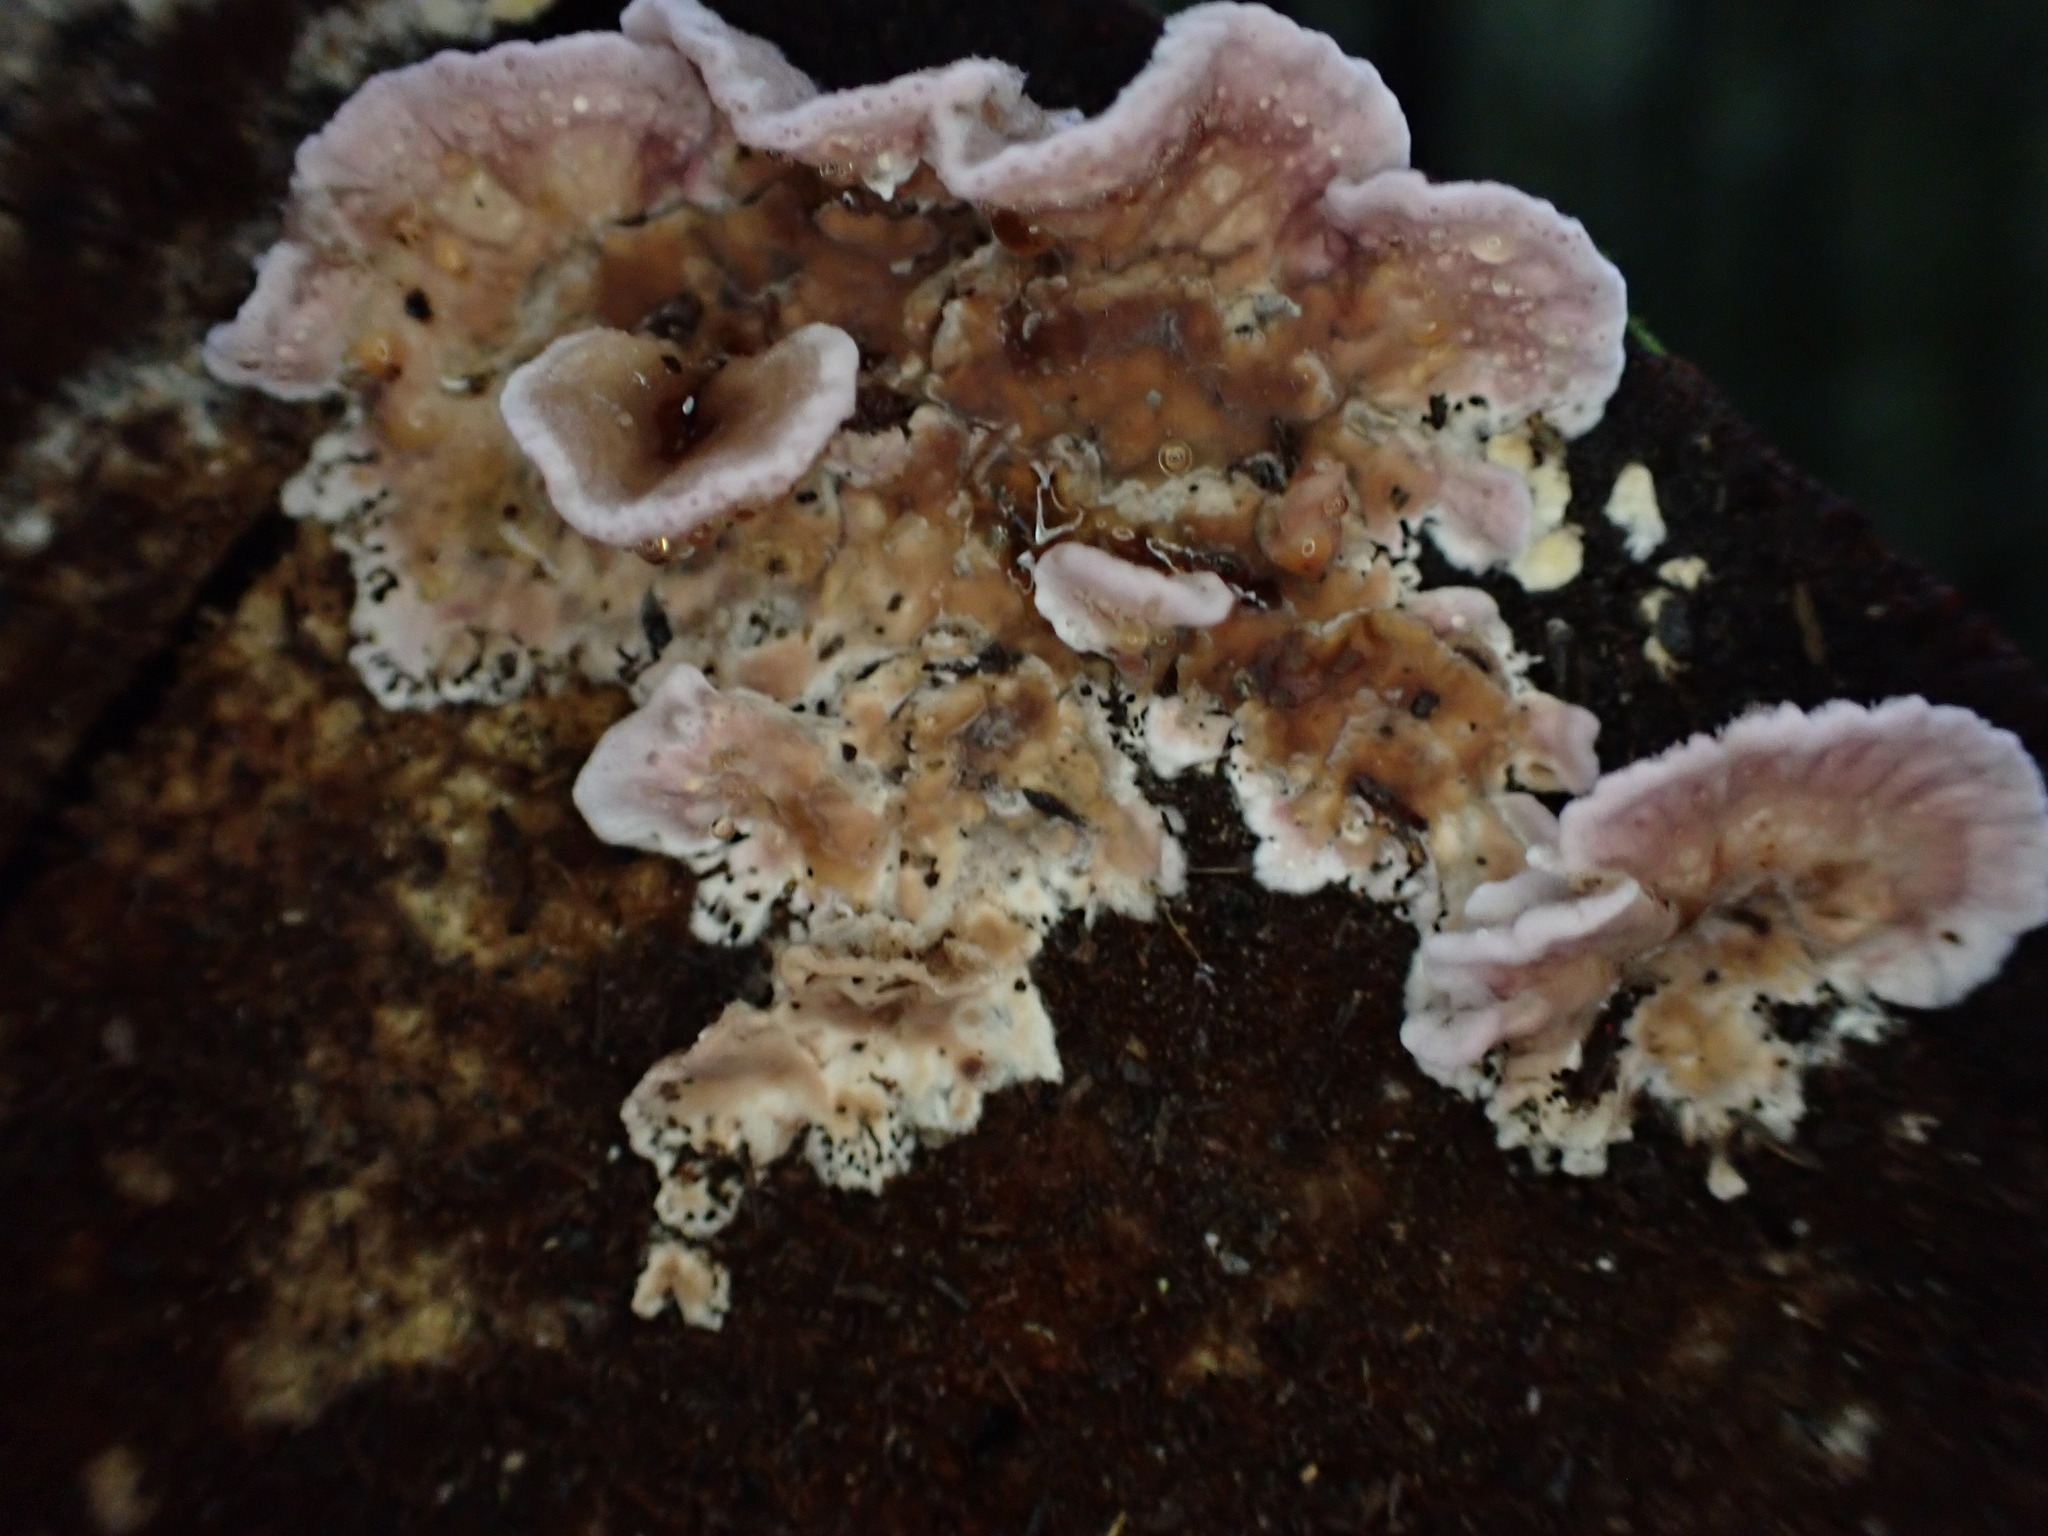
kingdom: Fungi
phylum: Basidiomycota
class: Agaricomycetes
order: Agaricales
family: Cyphellaceae
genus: Chondrostereum
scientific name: Chondrostereum purpureum
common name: Silver leaf disease
